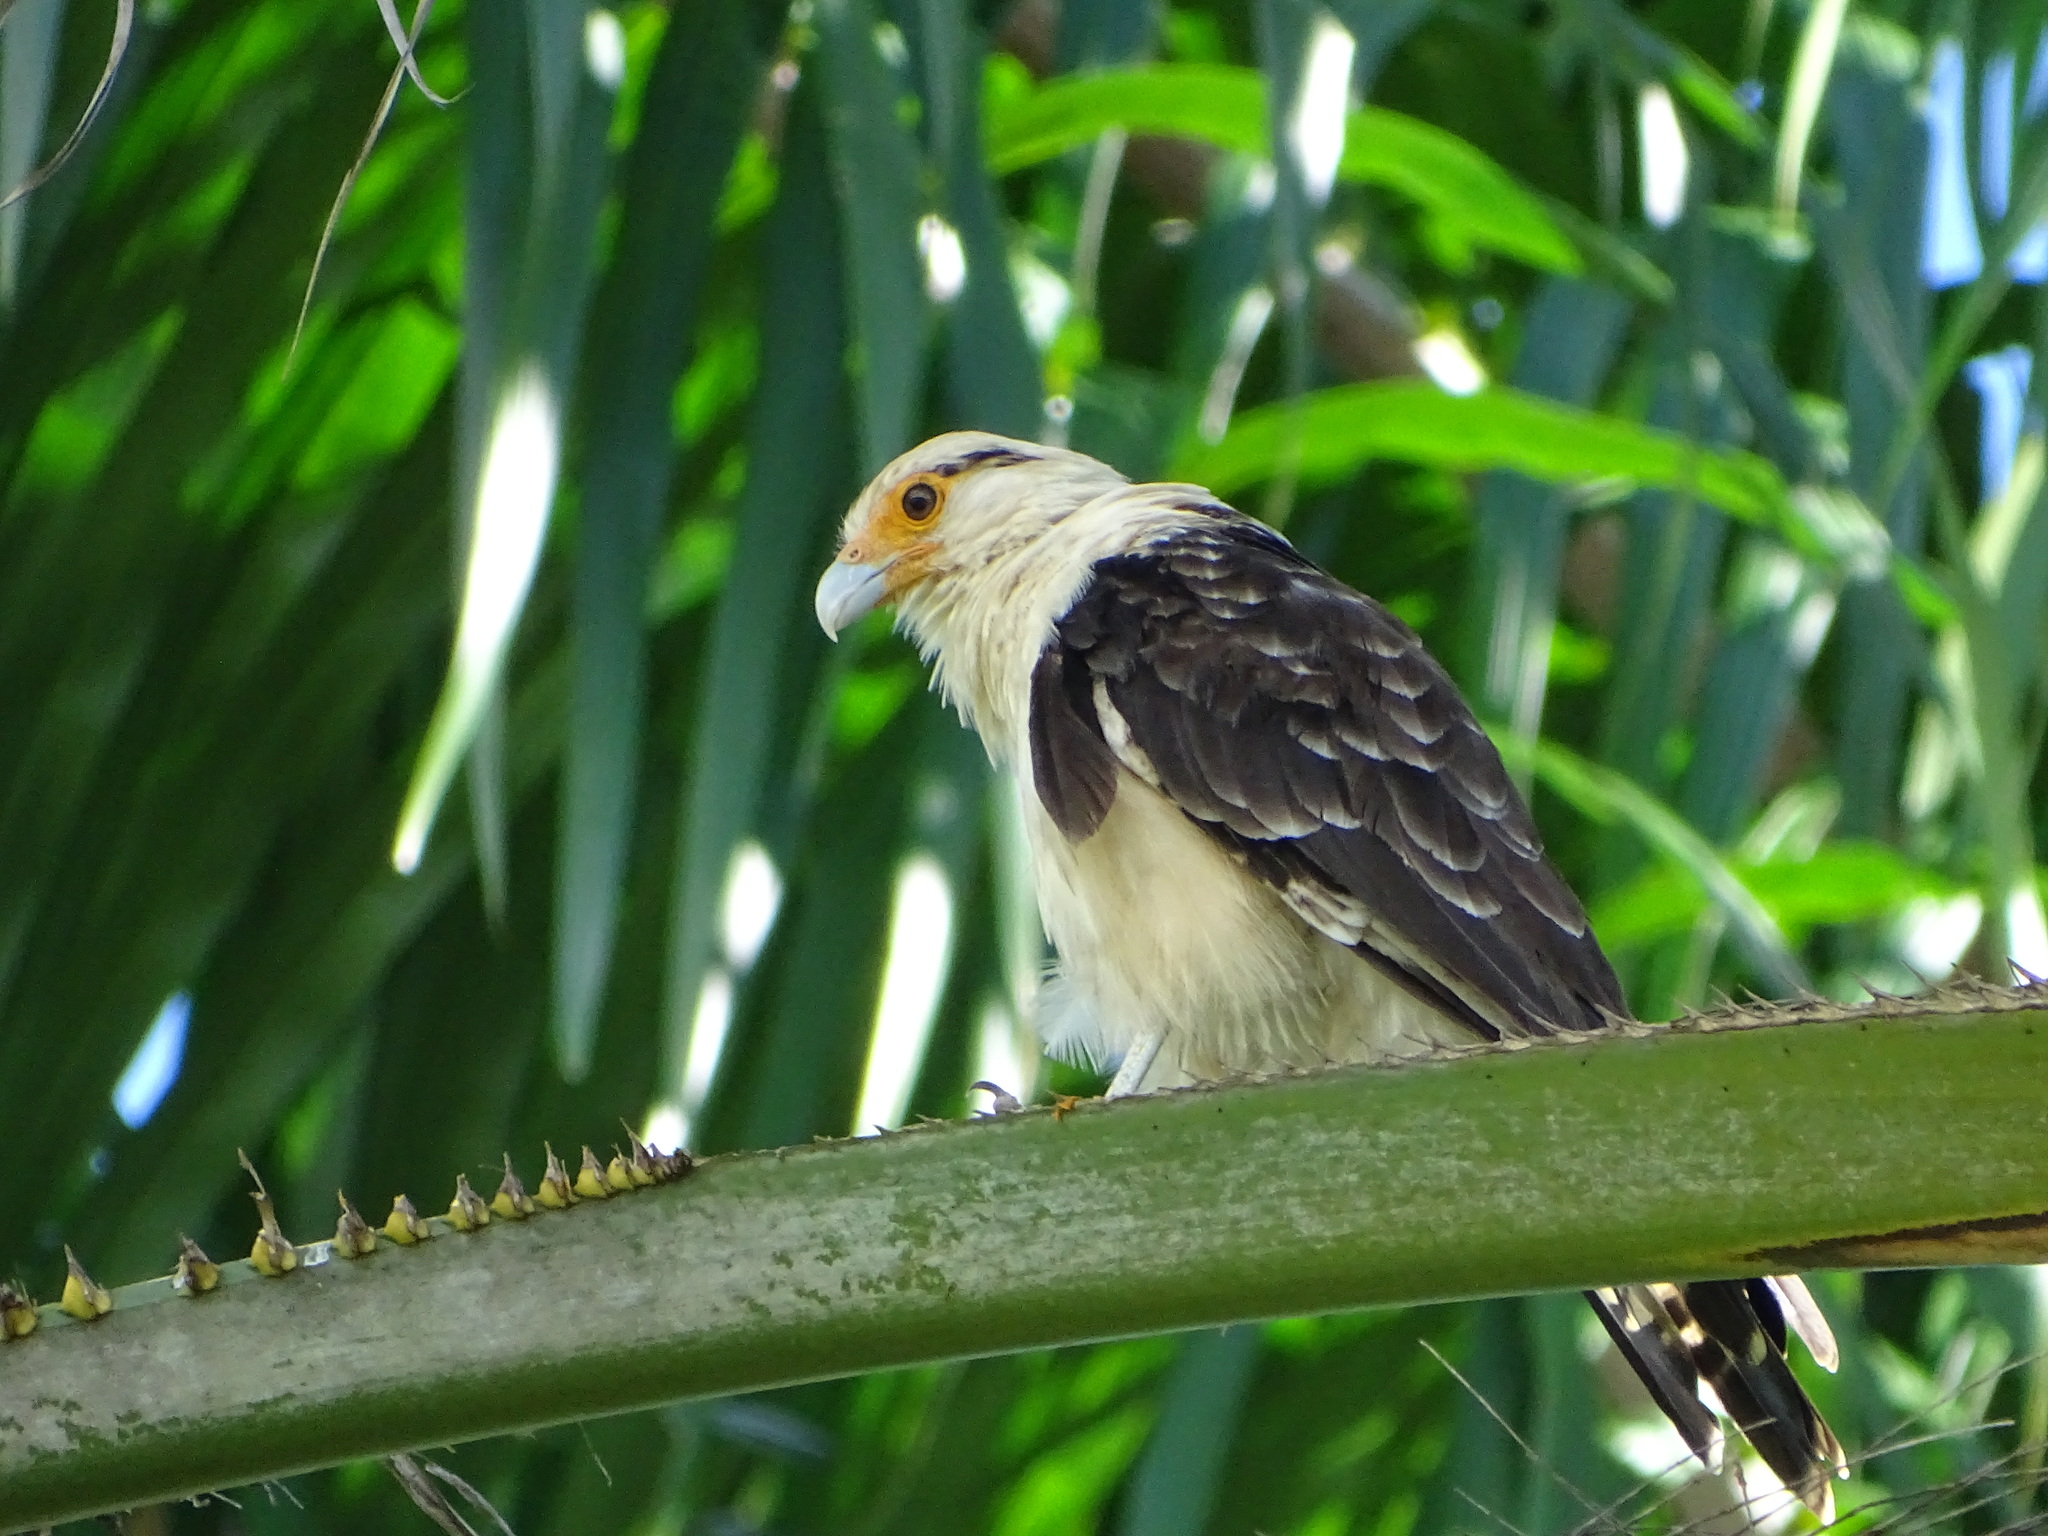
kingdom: Animalia
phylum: Chordata
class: Aves
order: Falconiformes
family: Falconidae
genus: Daptrius
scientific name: Daptrius
